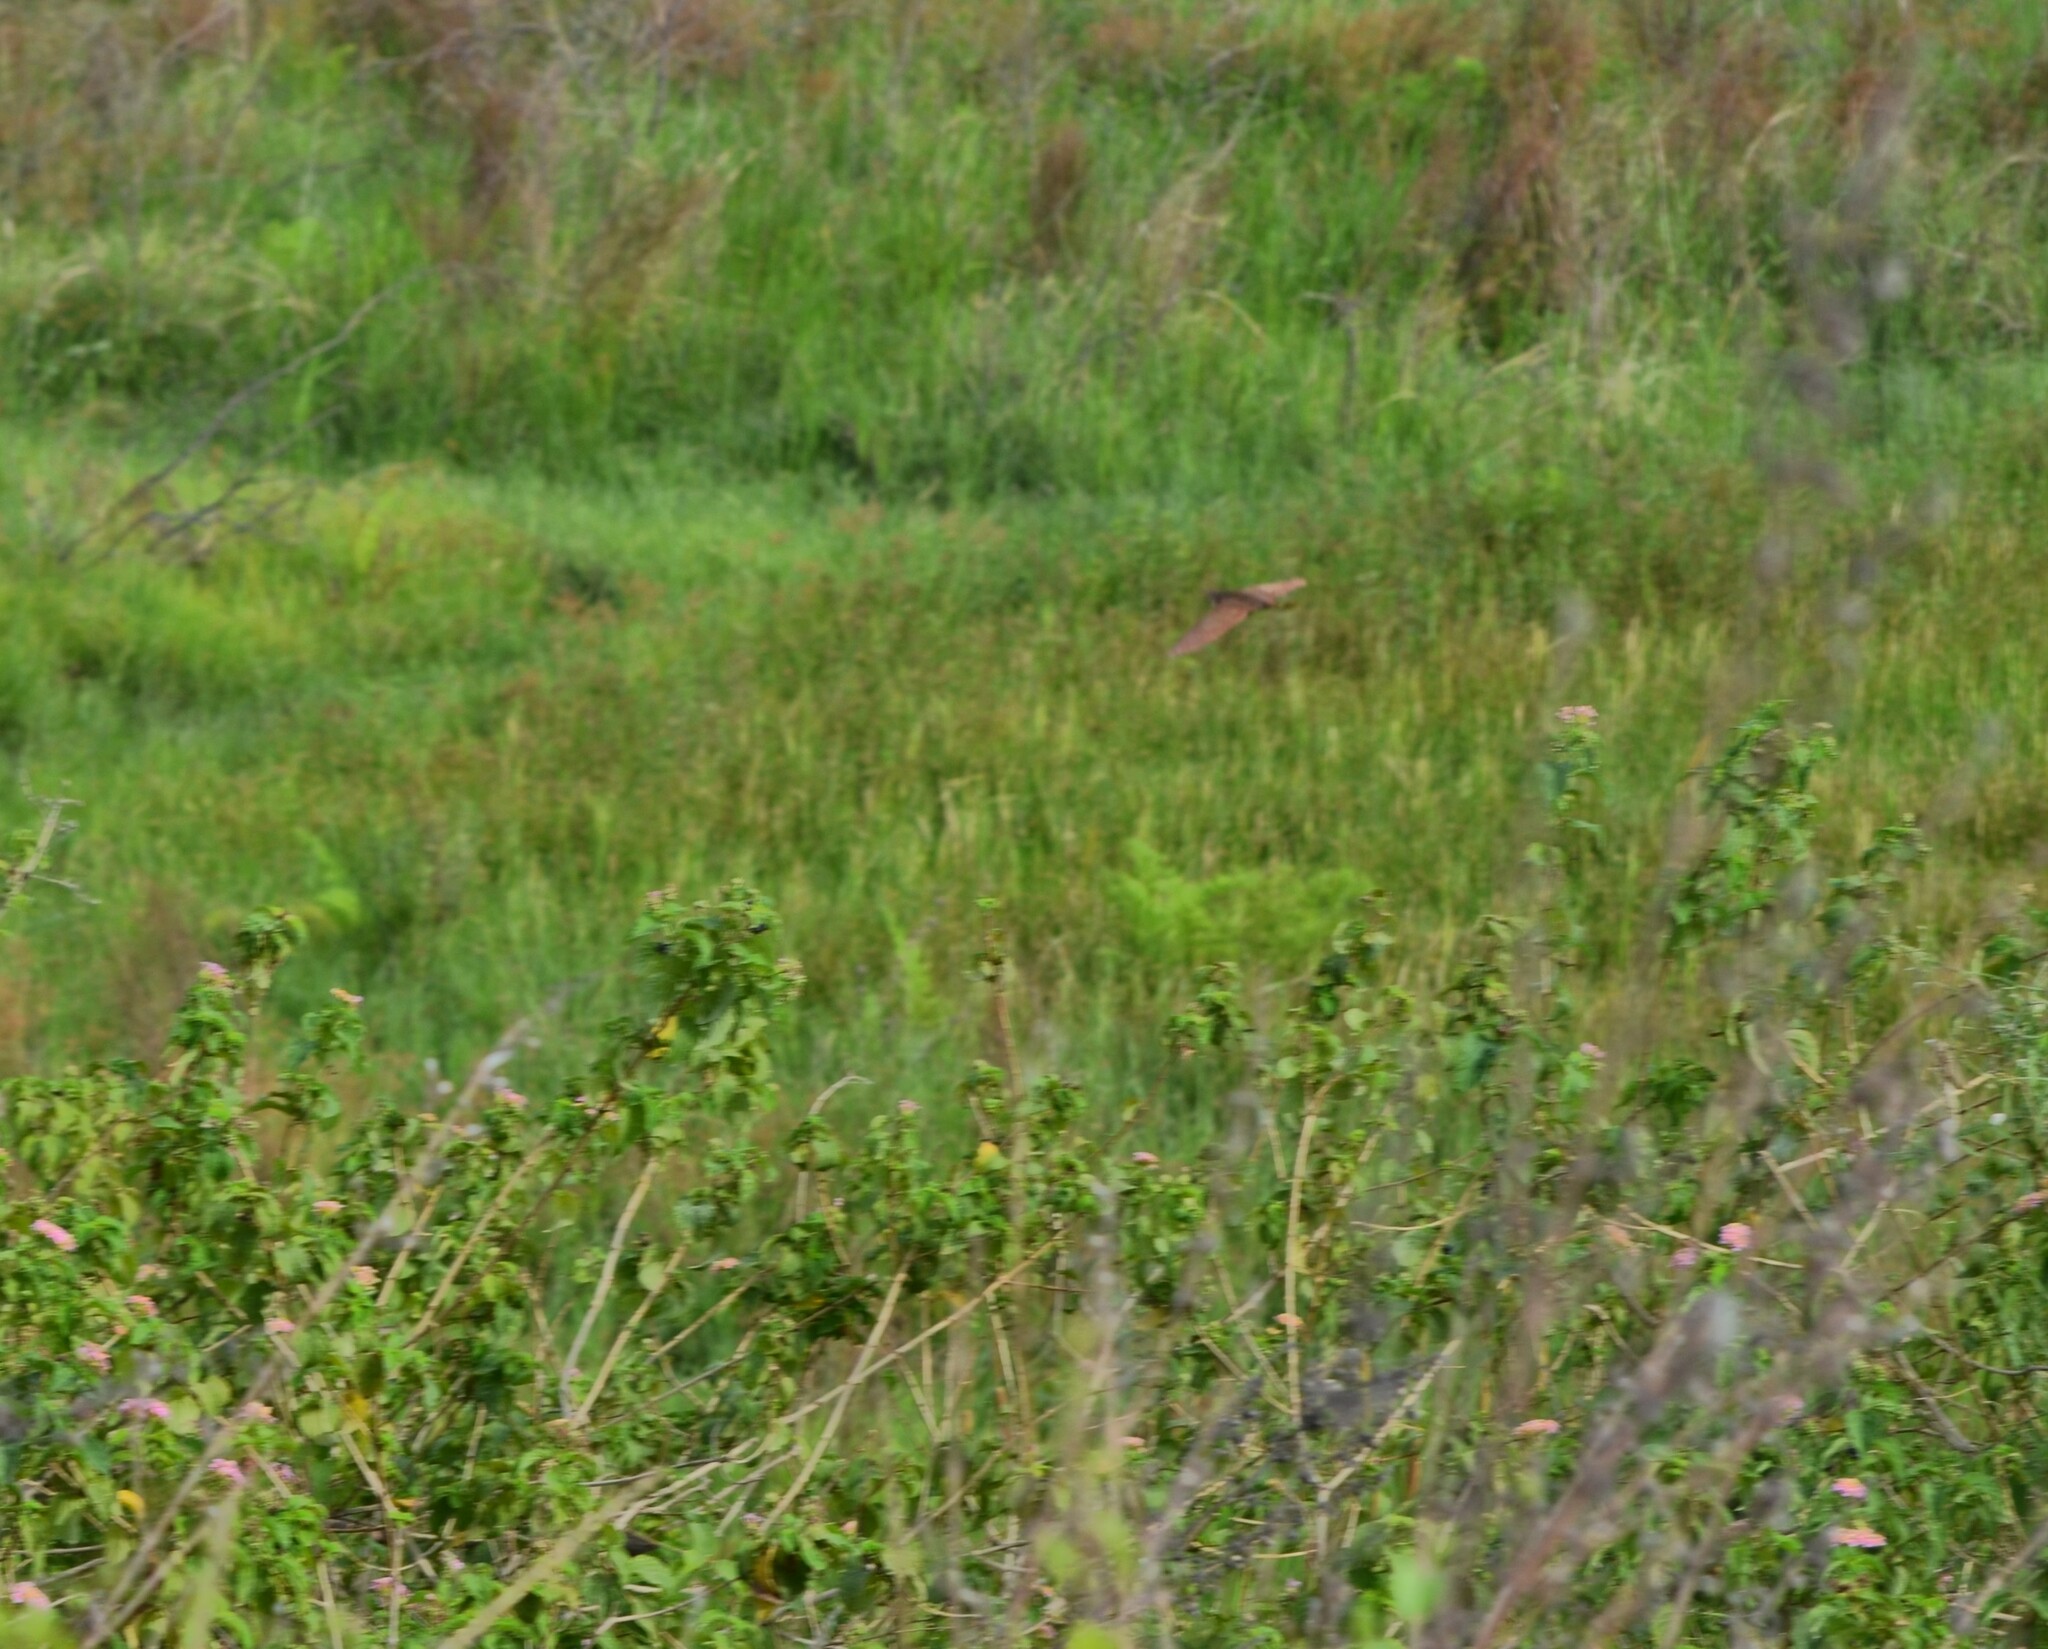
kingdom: Animalia
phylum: Chordata
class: Aves
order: Pelecaniformes
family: Ardeidae
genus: Ixobrychus
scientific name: Ixobrychus cinnamomeus
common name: Cinnamon bittern
